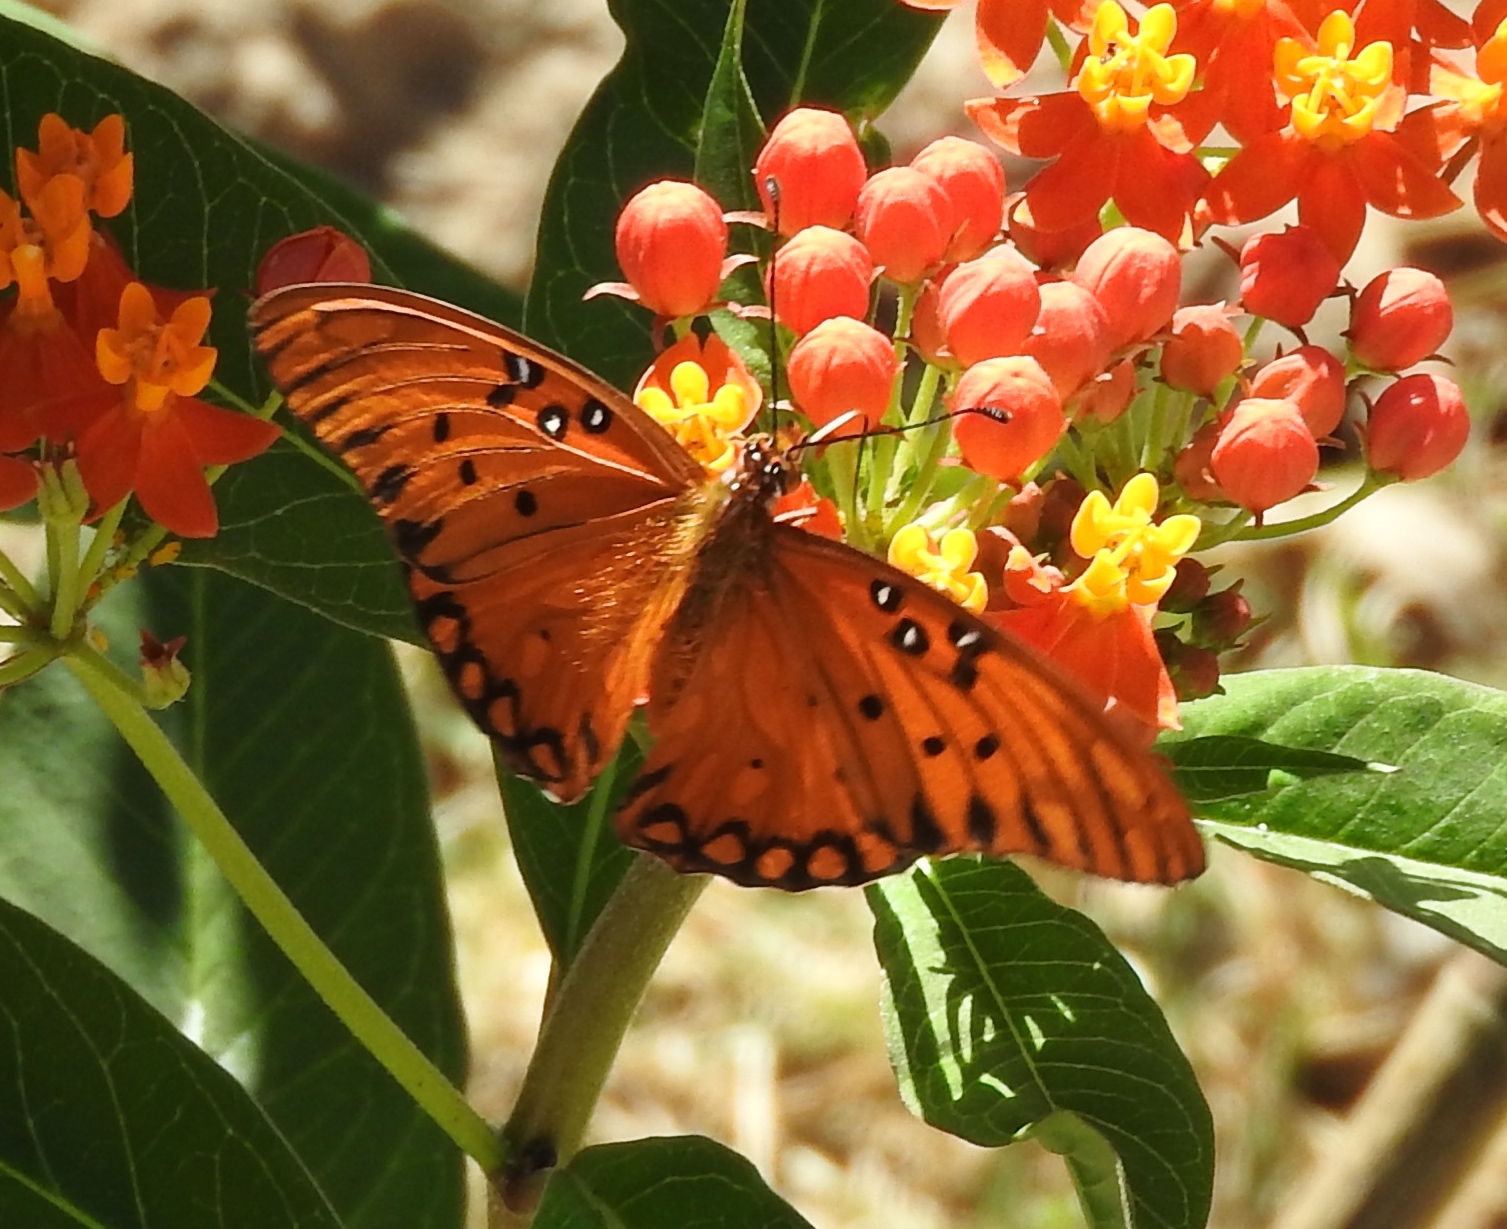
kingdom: Animalia
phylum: Arthropoda
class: Insecta
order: Lepidoptera
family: Nymphalidae
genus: Dione
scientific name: Dione vanillae
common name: Gulf fritillary
